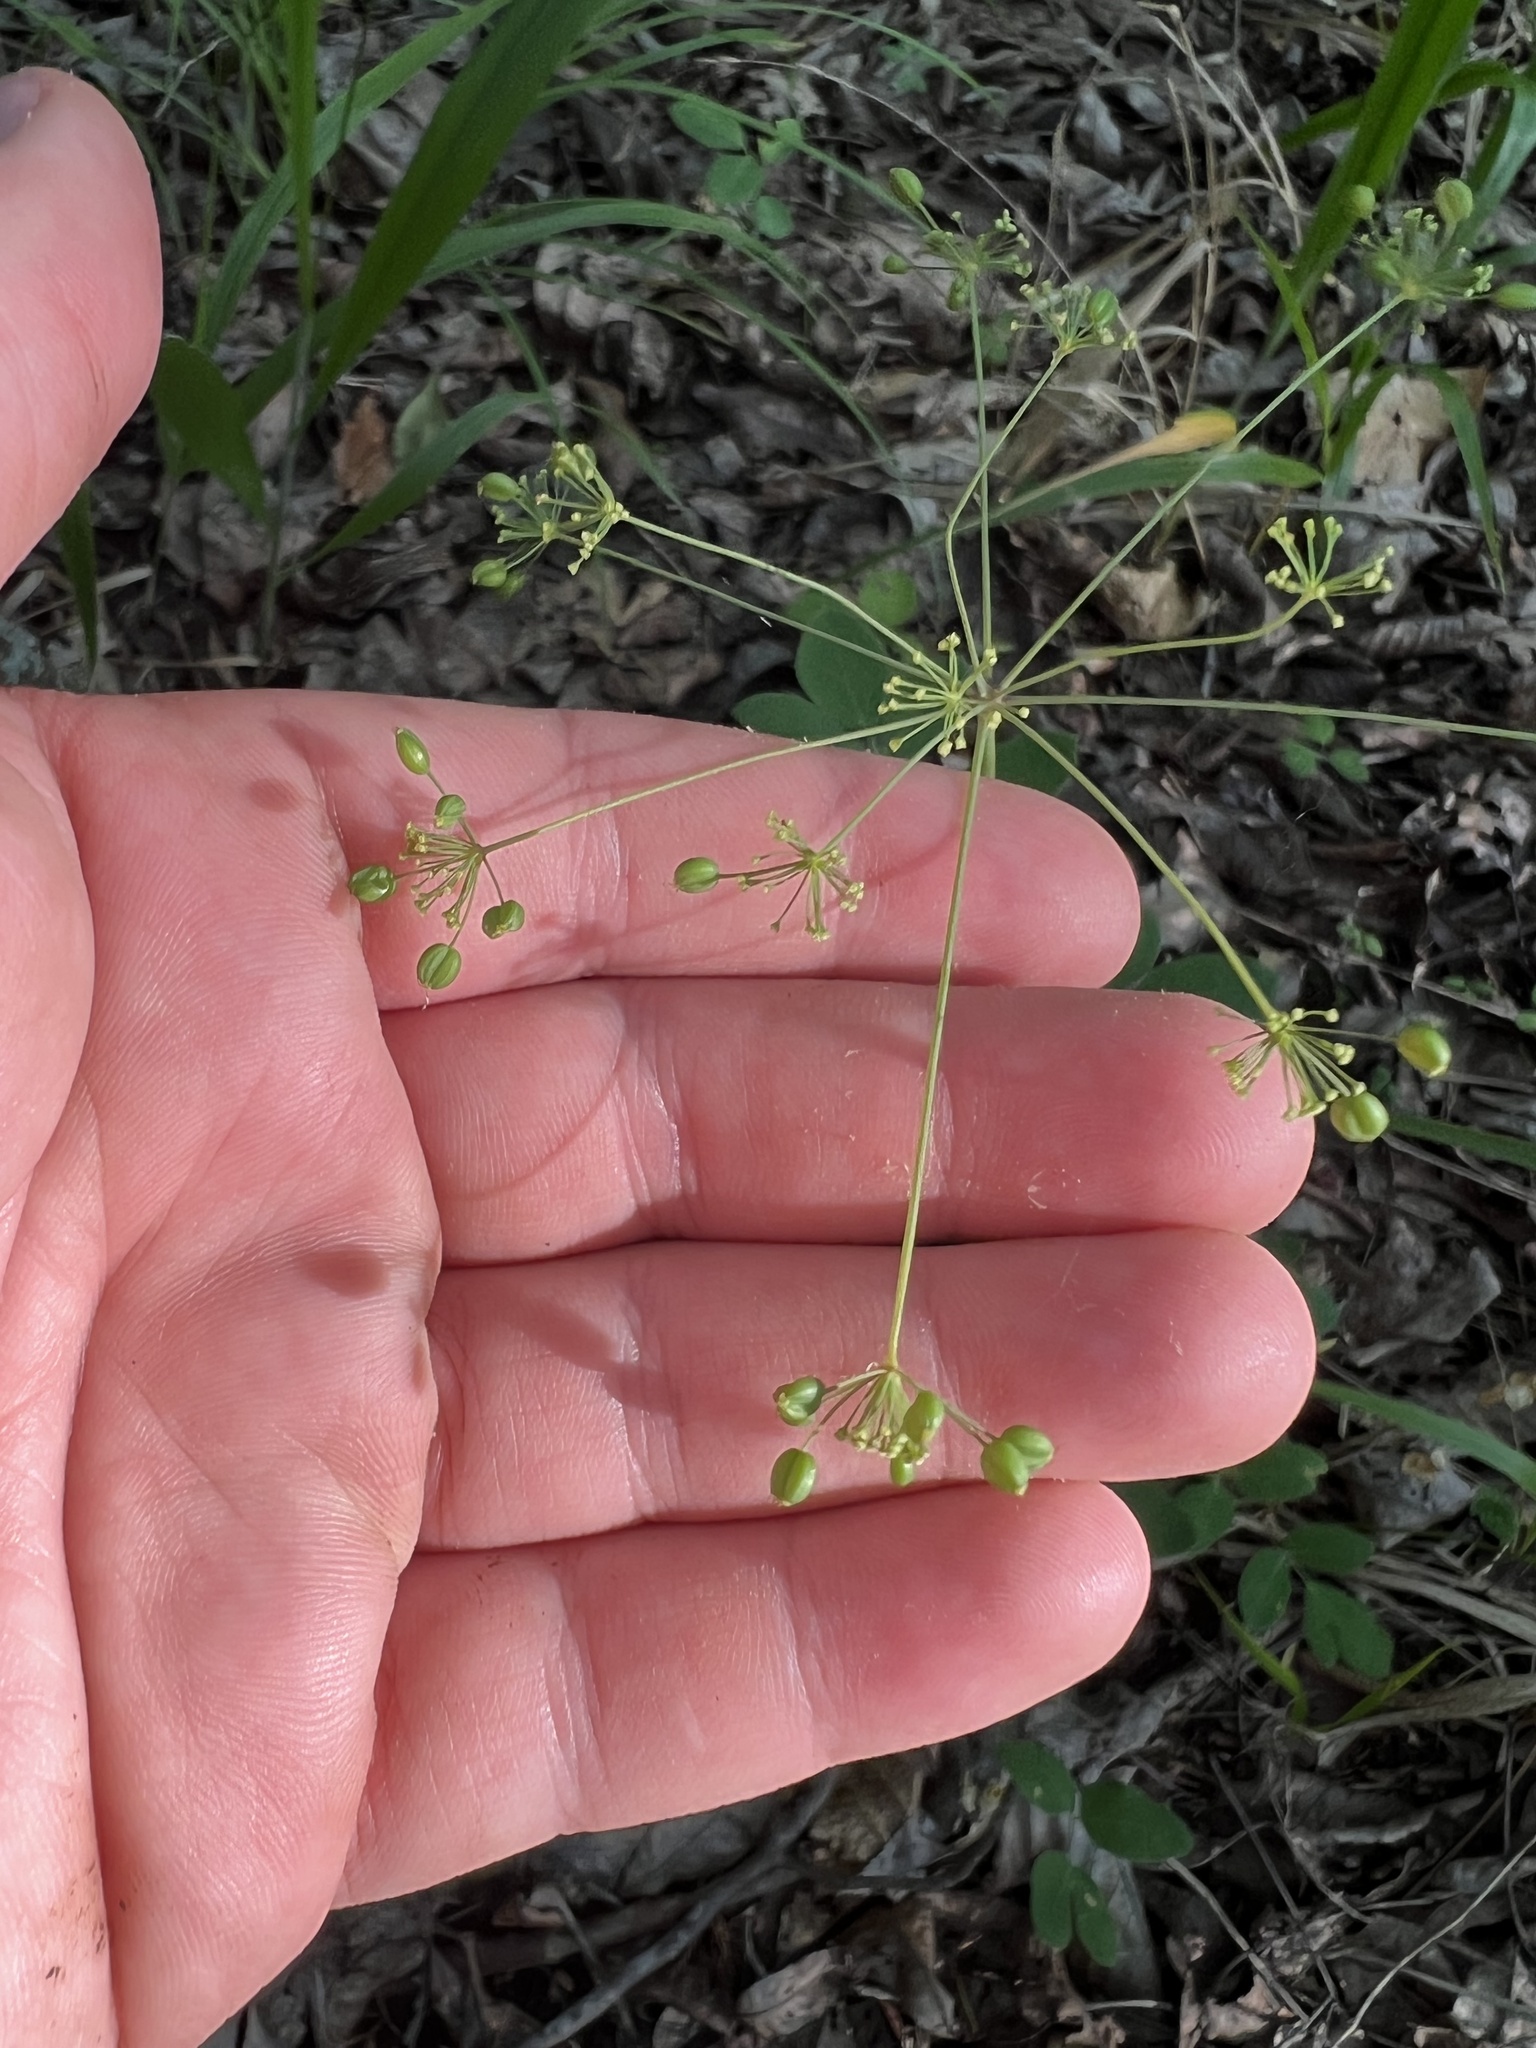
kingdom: Plantae
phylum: Tracheophyta
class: Magnoliopsida
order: Apiales
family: Apiaceae
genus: Taenidia
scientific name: Taenidia integerrima
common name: Golden alexander
